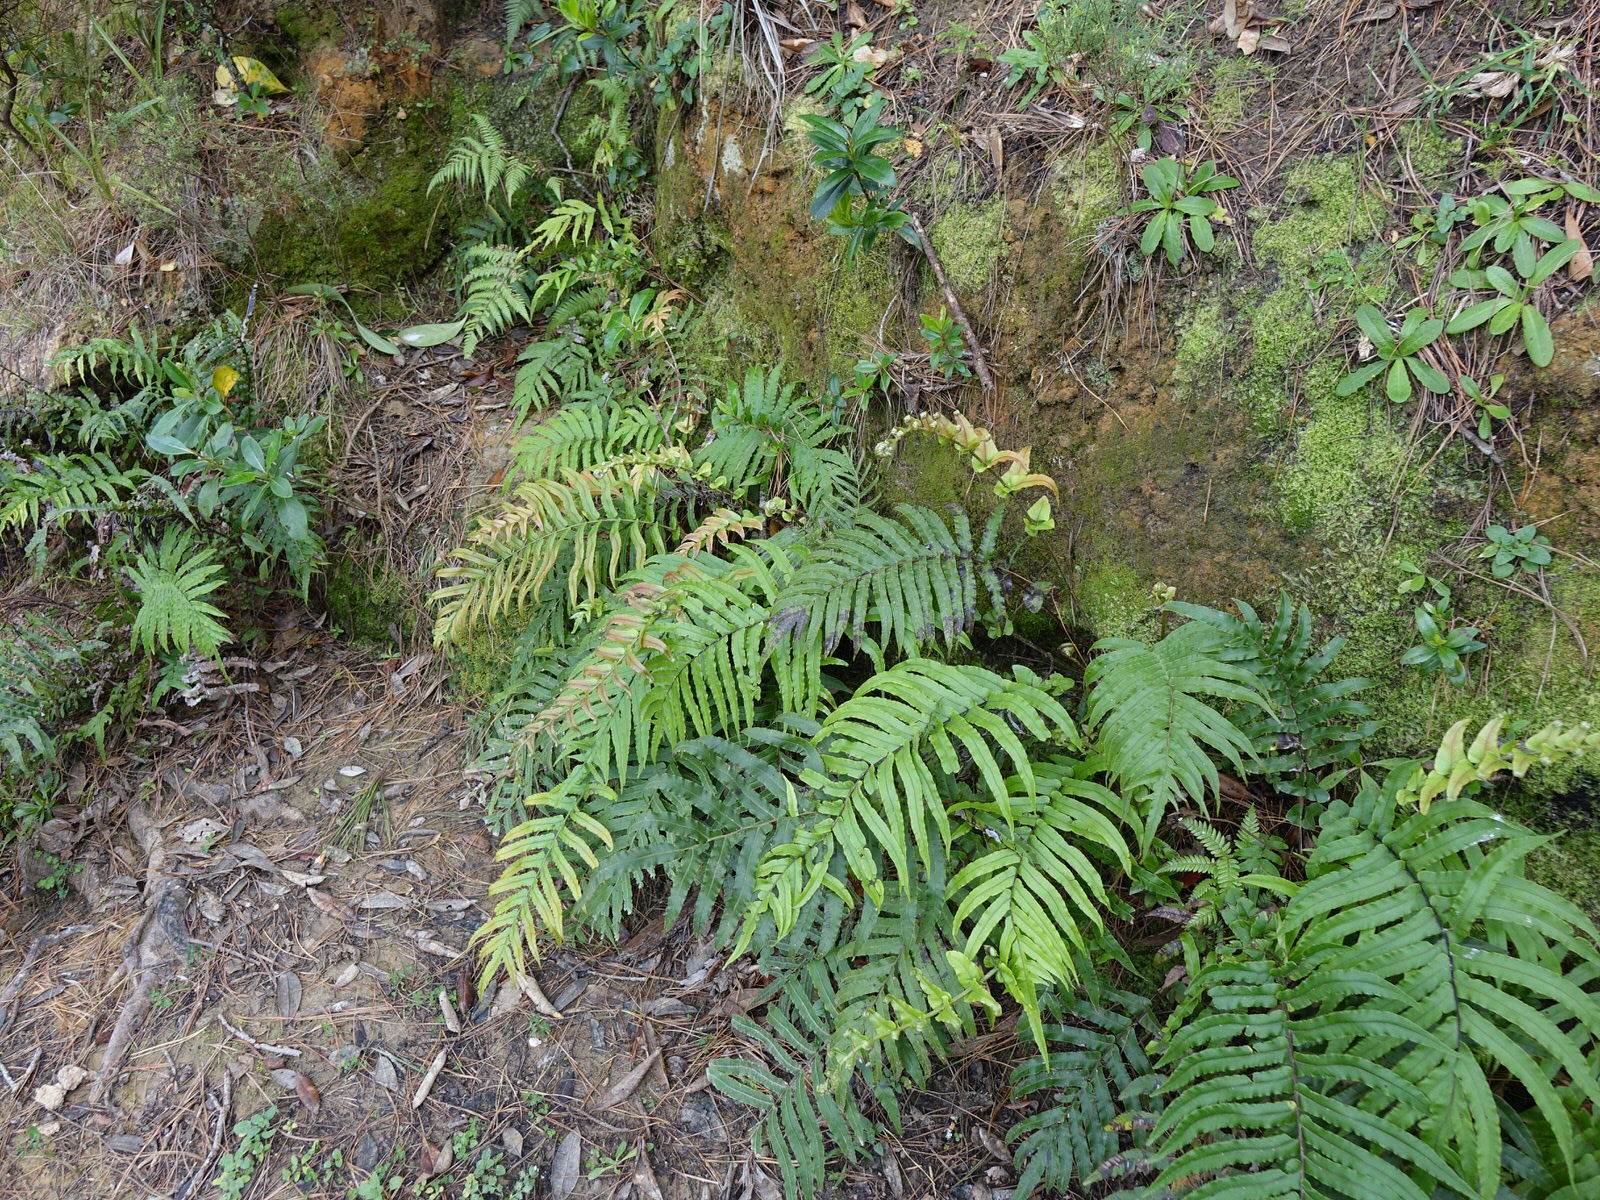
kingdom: Plantae
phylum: Tracheophyta
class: Polypodiopsida
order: Polypodiales
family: Blechnaceae
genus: Parablechnum
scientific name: Parablechnum novae-zelandiae
